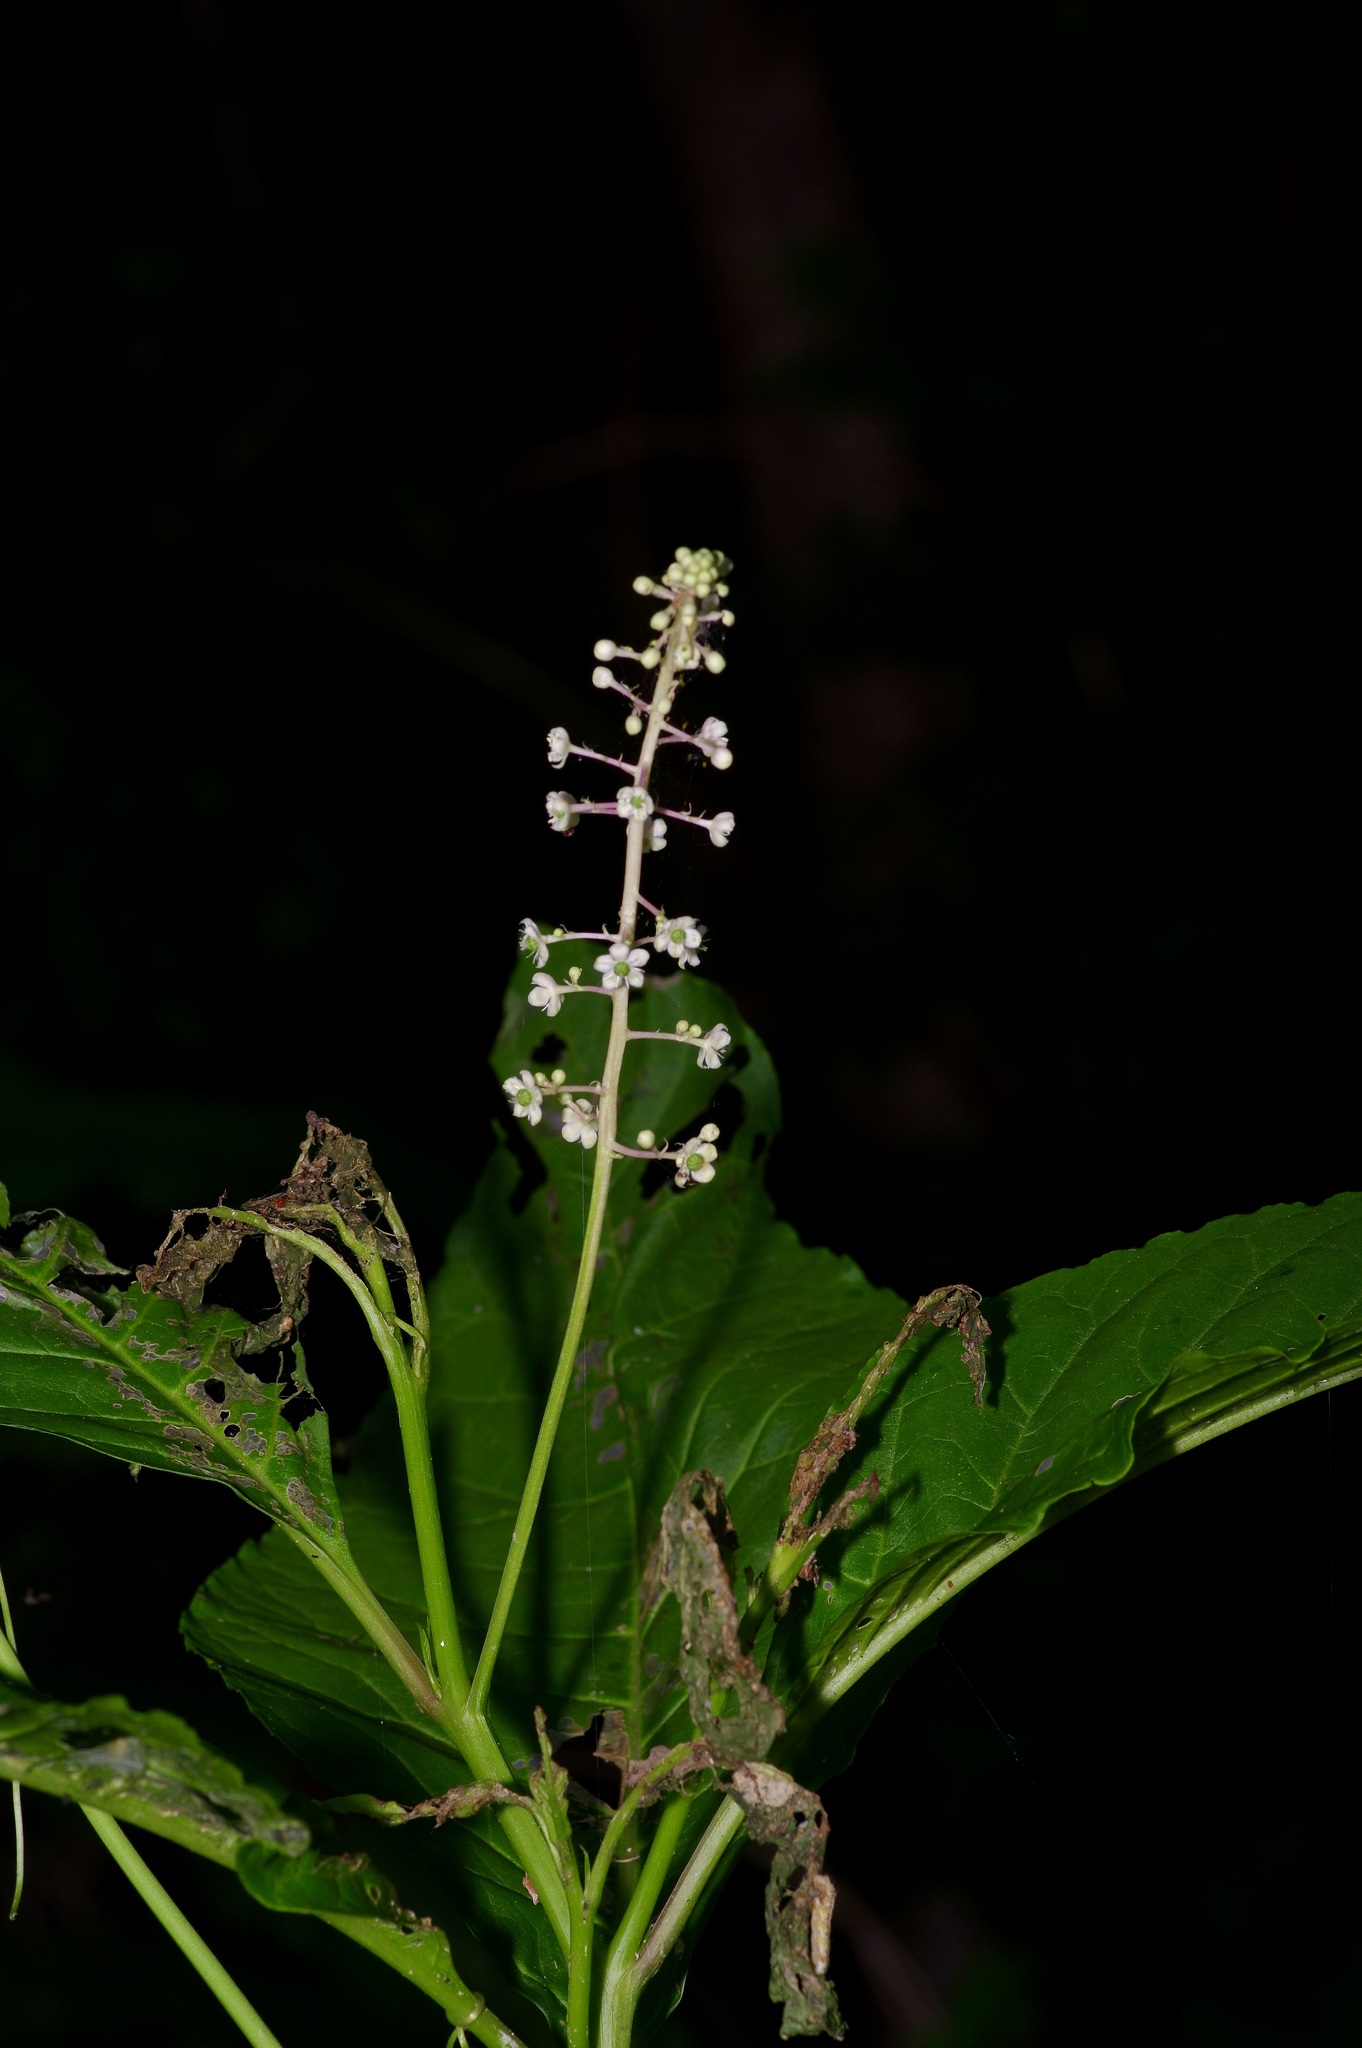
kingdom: Plantae
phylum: Tracheophyta
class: Magnoliopsida
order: Caryophyllales
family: Phytolaccaceae
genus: Phytolacca
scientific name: Phytolacca americana
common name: American pokeweed
